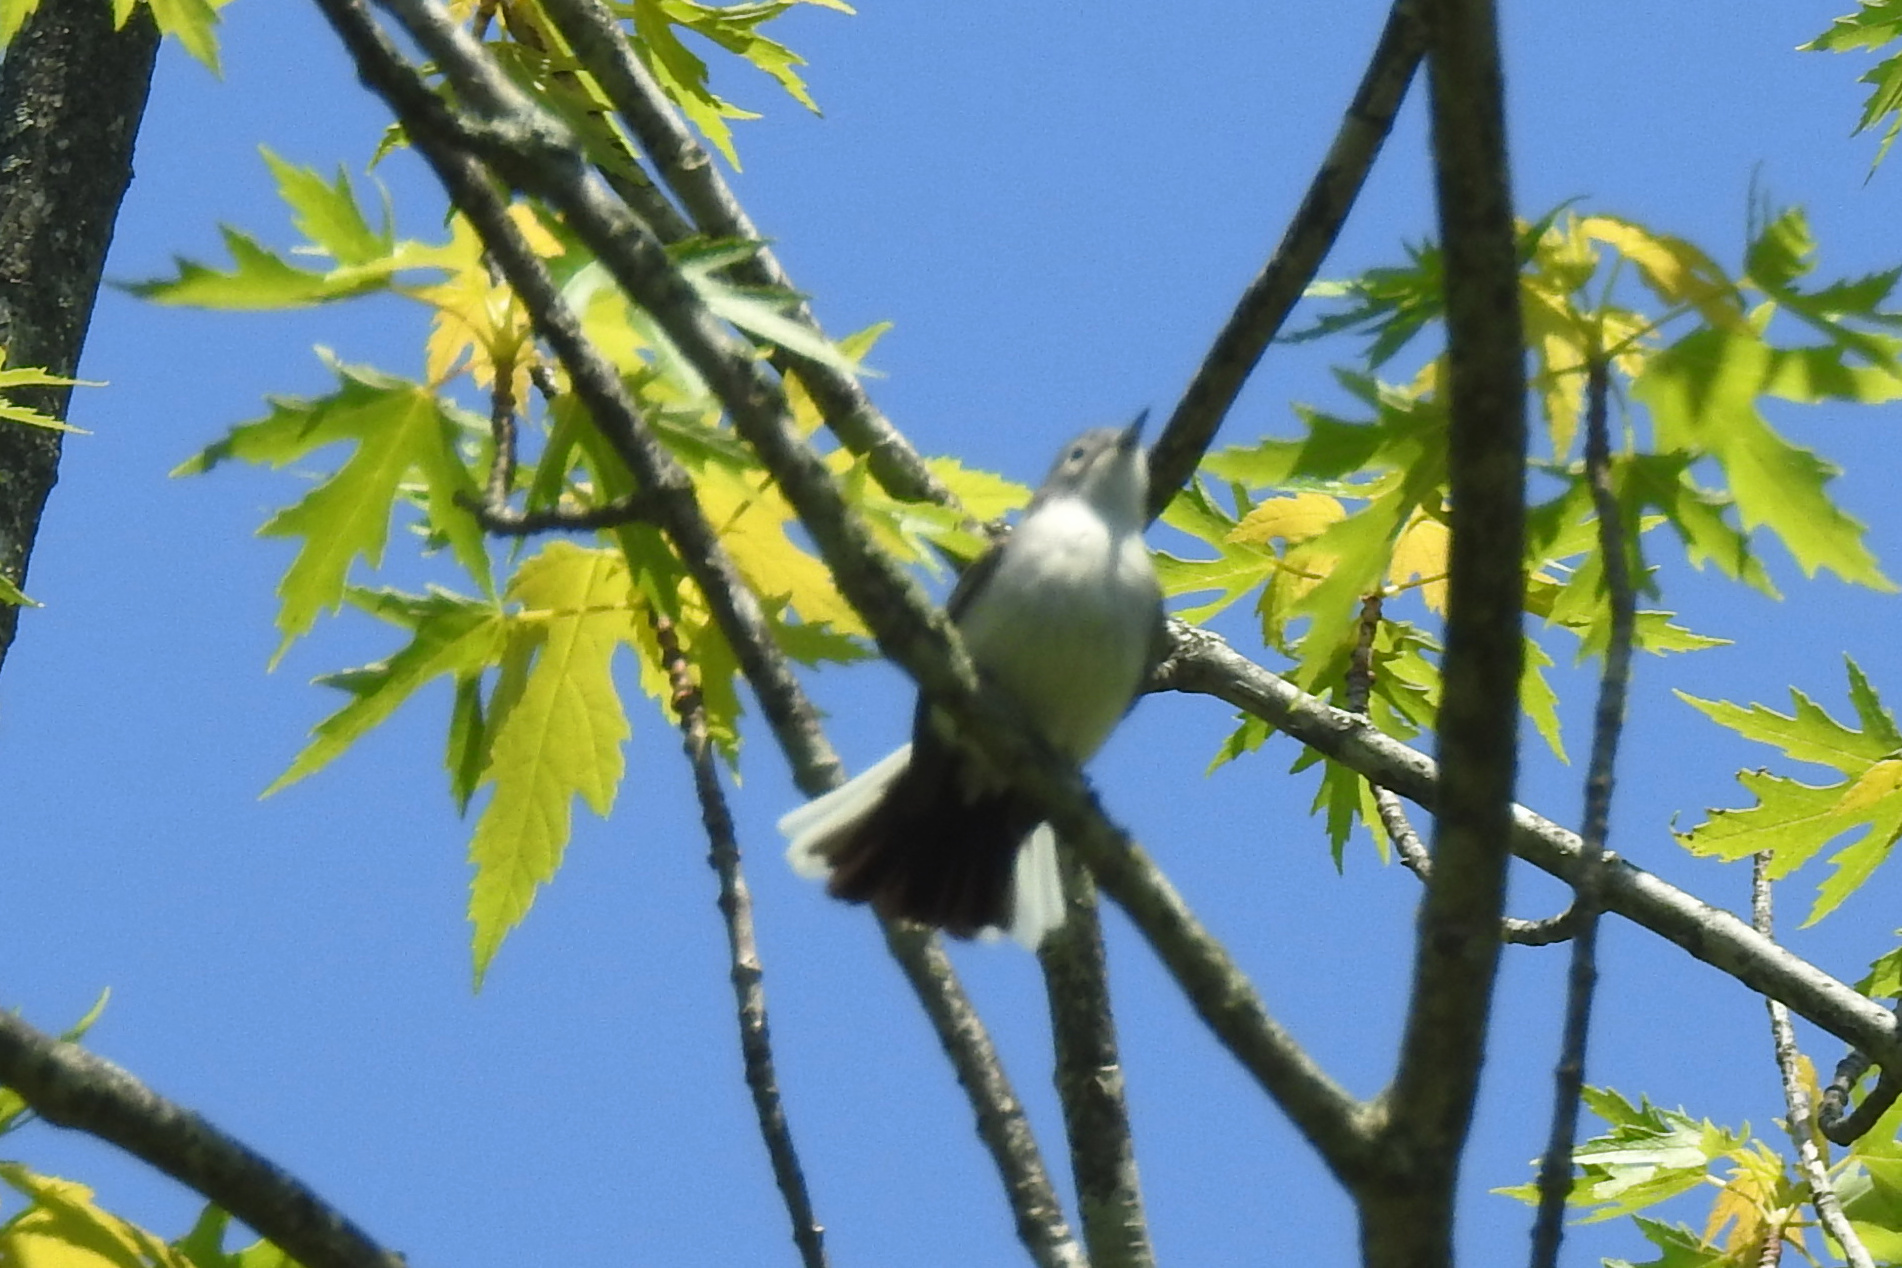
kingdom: Animalia
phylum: Chordata
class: Aves
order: Passeriformes
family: Polioptilidae
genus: Polioptila
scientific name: Polioptila caerulea
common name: Blue-gray gnatcatcher
